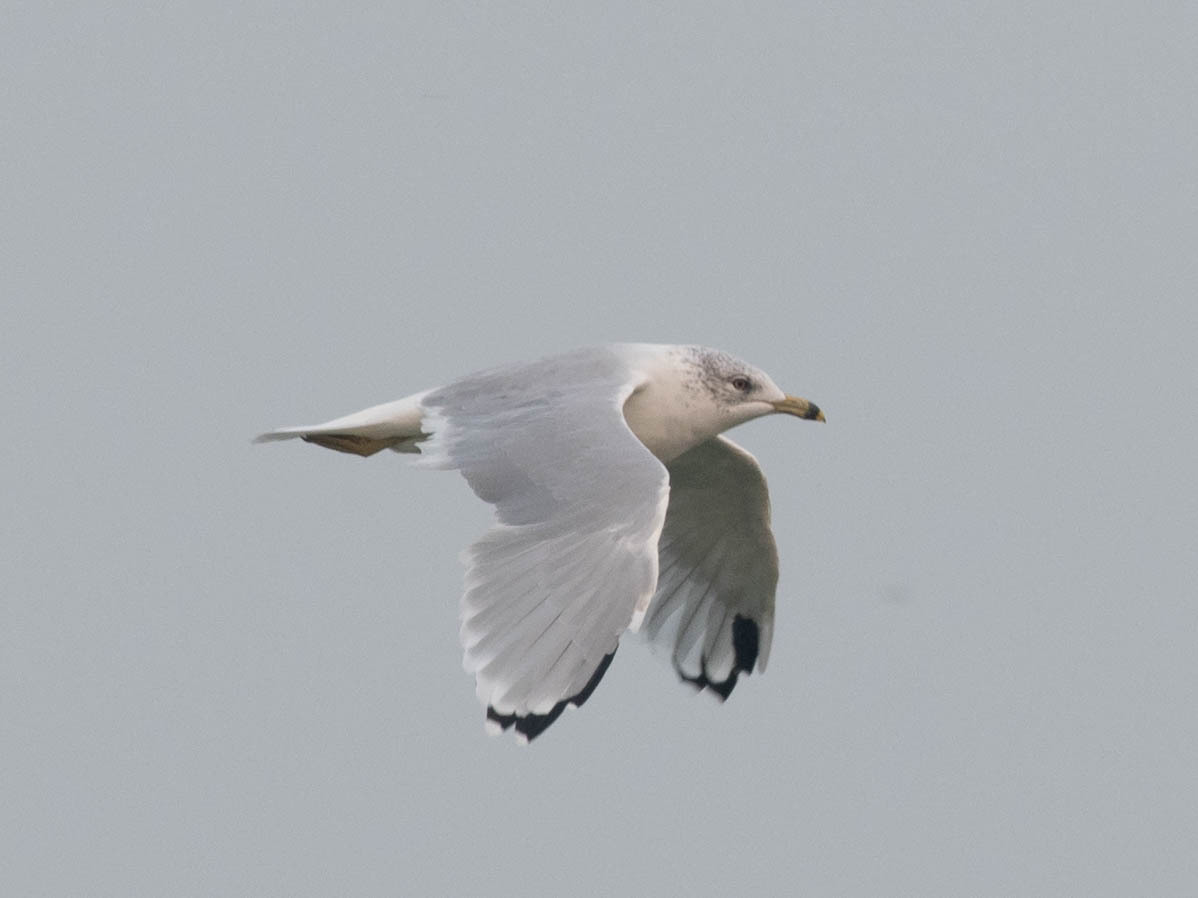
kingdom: Animalia
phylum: Chordata
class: Aves
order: Charadriiformes
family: Laridae
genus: Larus
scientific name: Larus delawarensis
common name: Ring-billed gull
